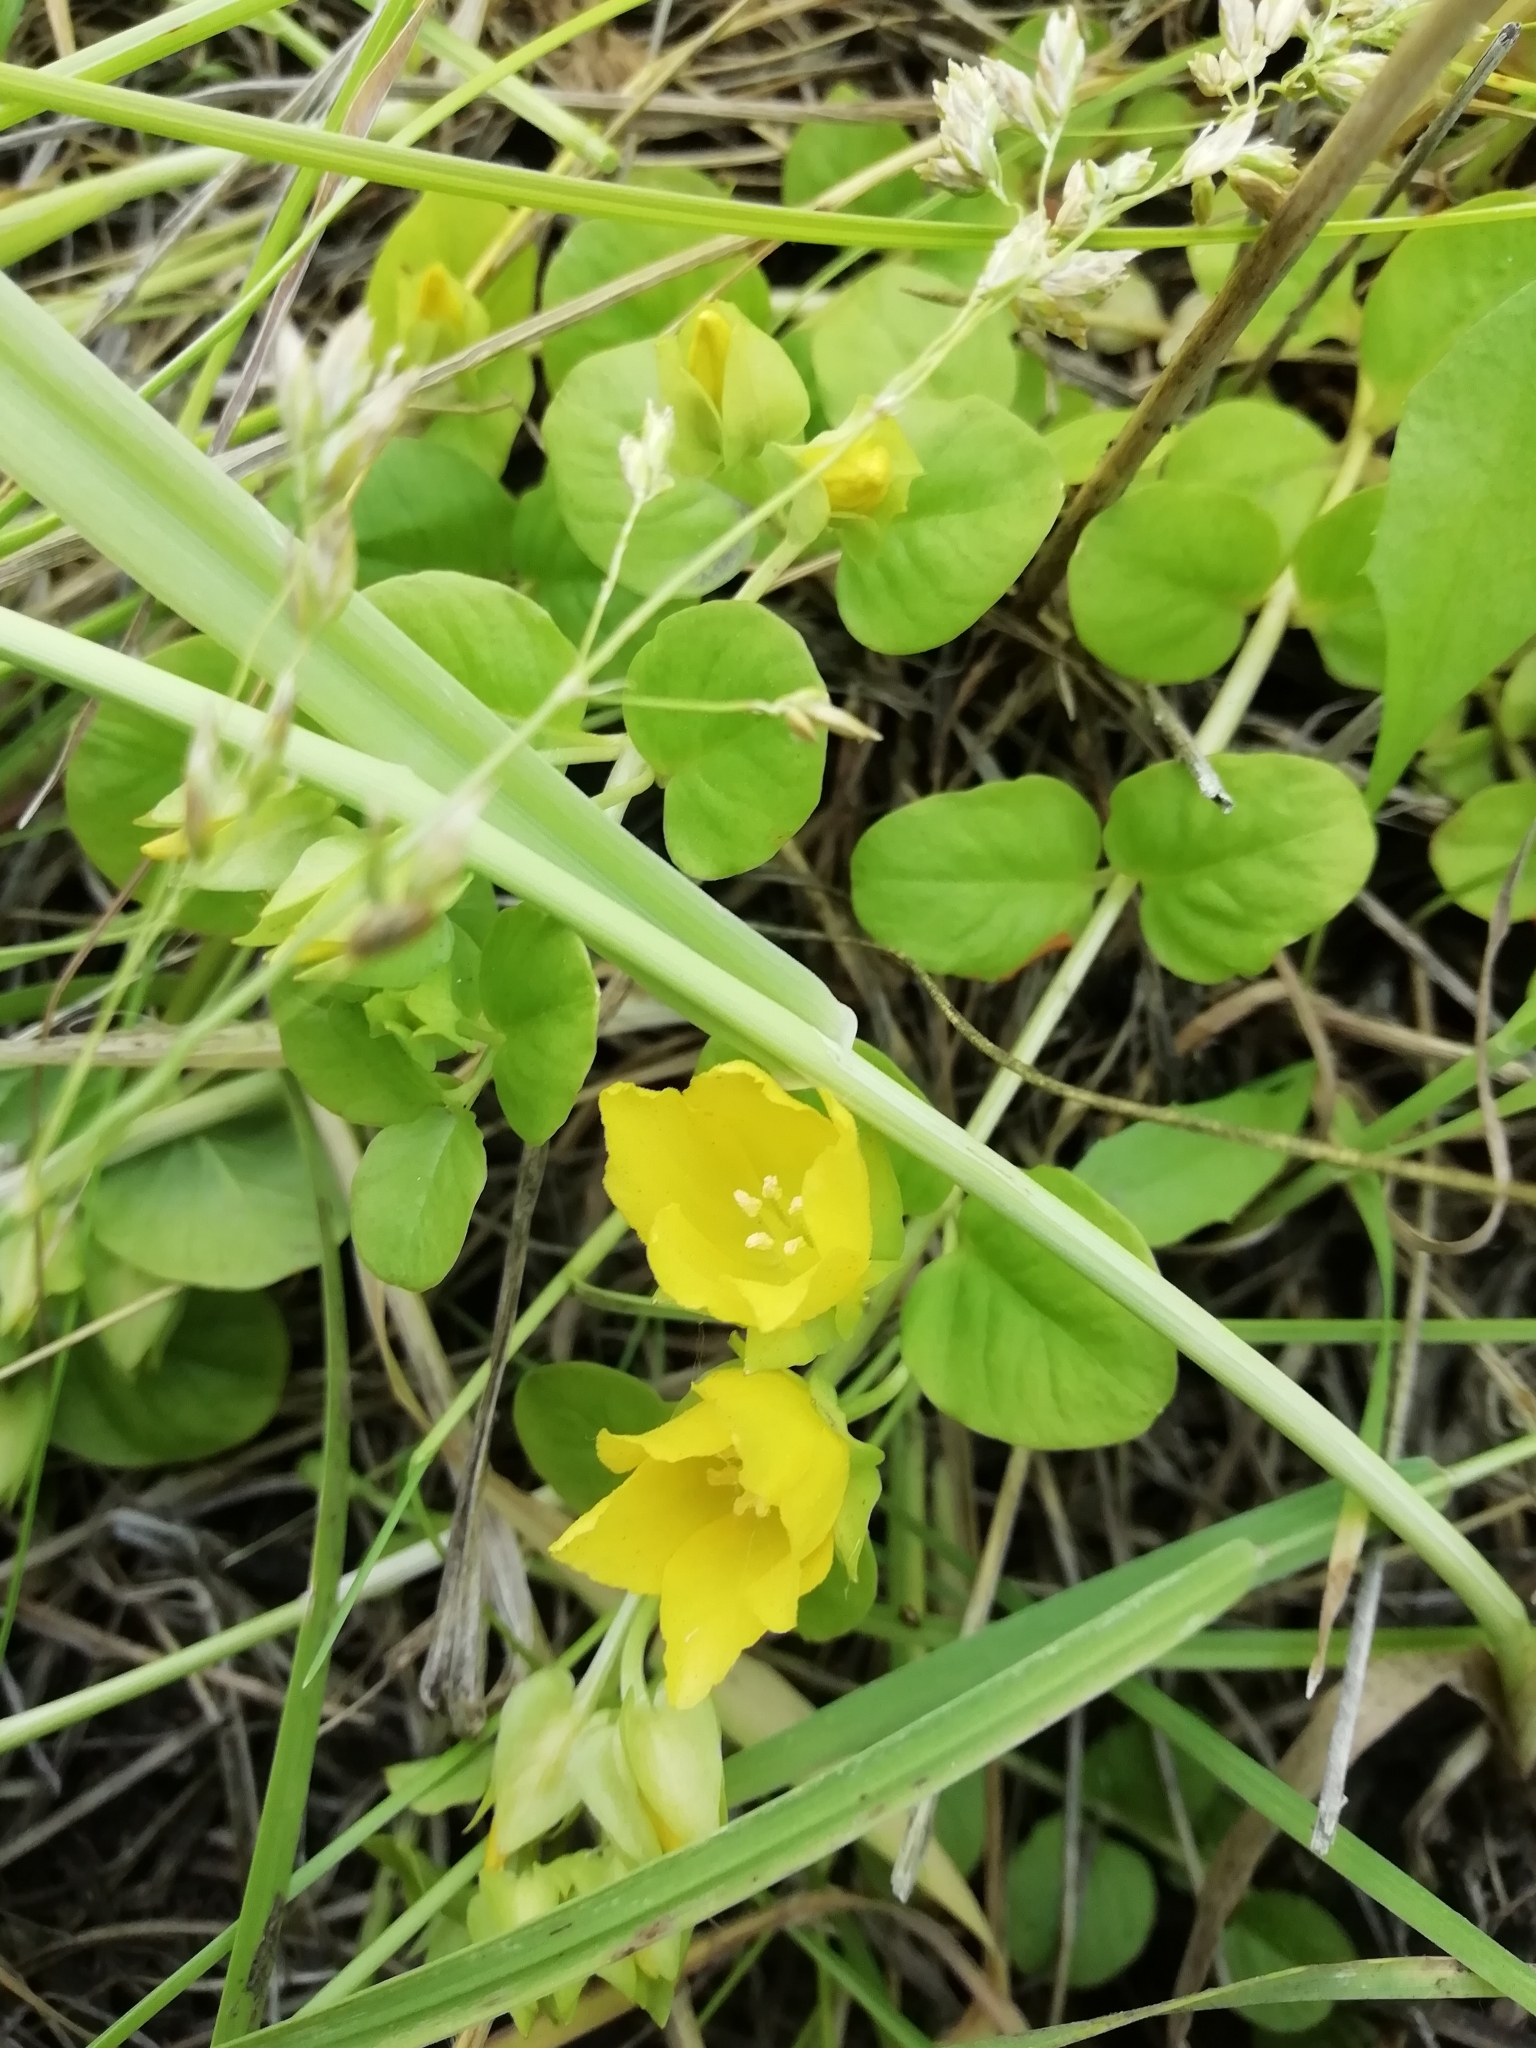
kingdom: Plantae
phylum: Tracheophyta
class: Magnoliopsida
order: Ericales
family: Primulaceae
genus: Lysimachia
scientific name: Lysimachia nummularia
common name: Moneywort
